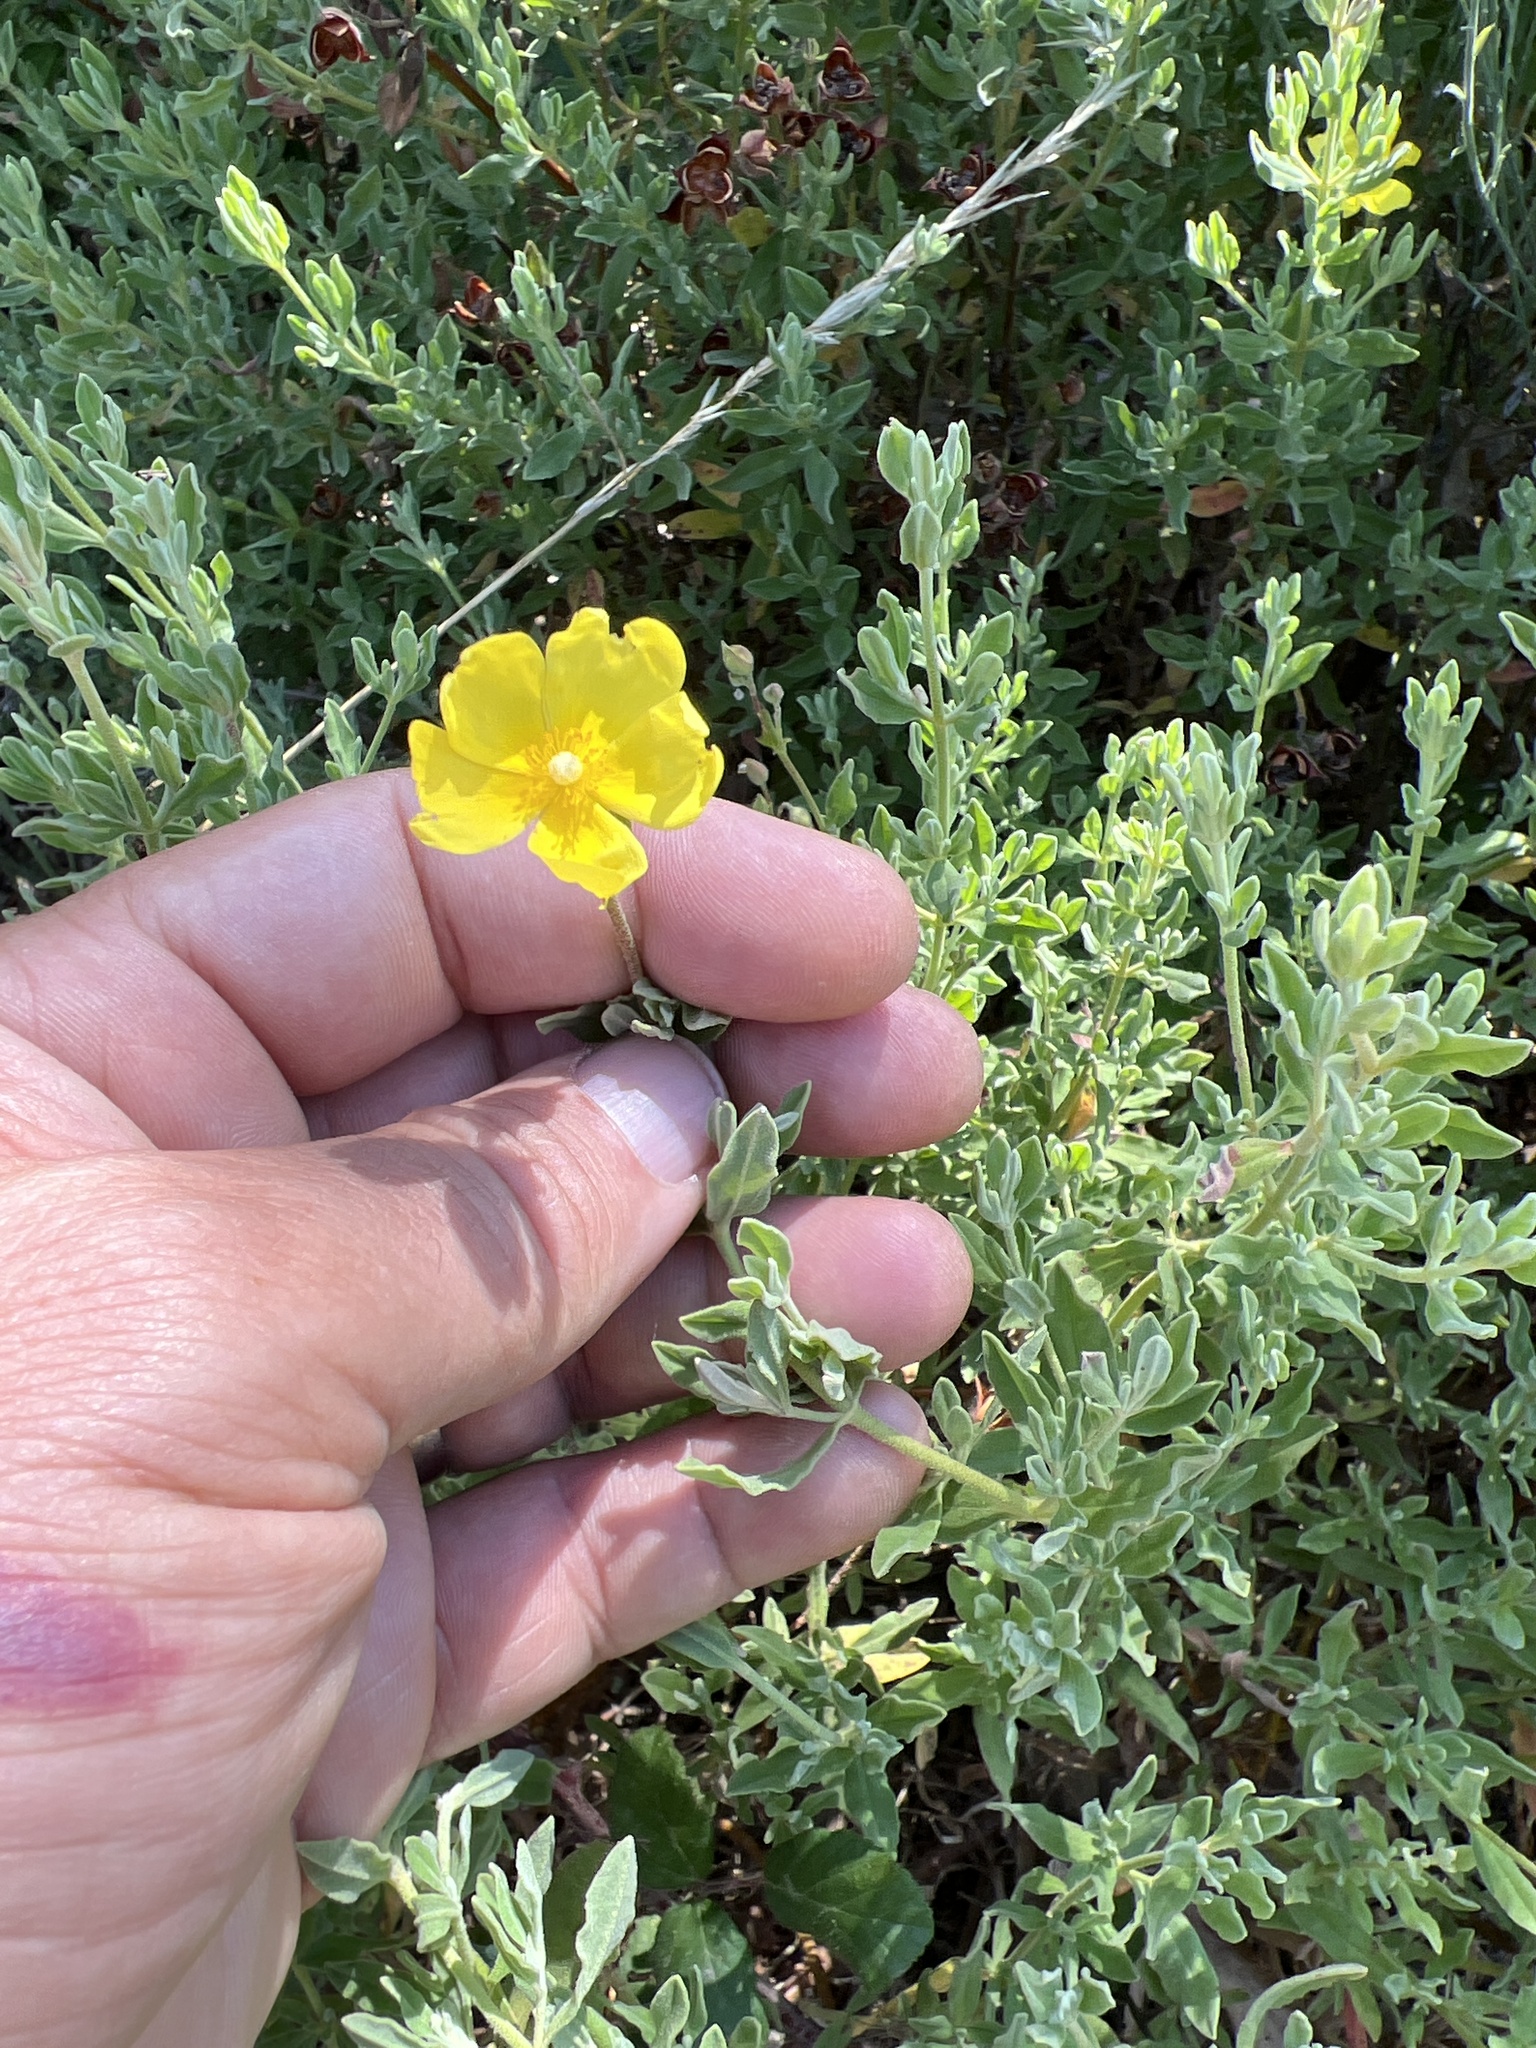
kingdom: Plantae
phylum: Tracheophyta
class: Magnoliopsida
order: Malvales
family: Cistaceae
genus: Halimium
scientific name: Halimium lasianthum
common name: Lisbon false sun-rose
